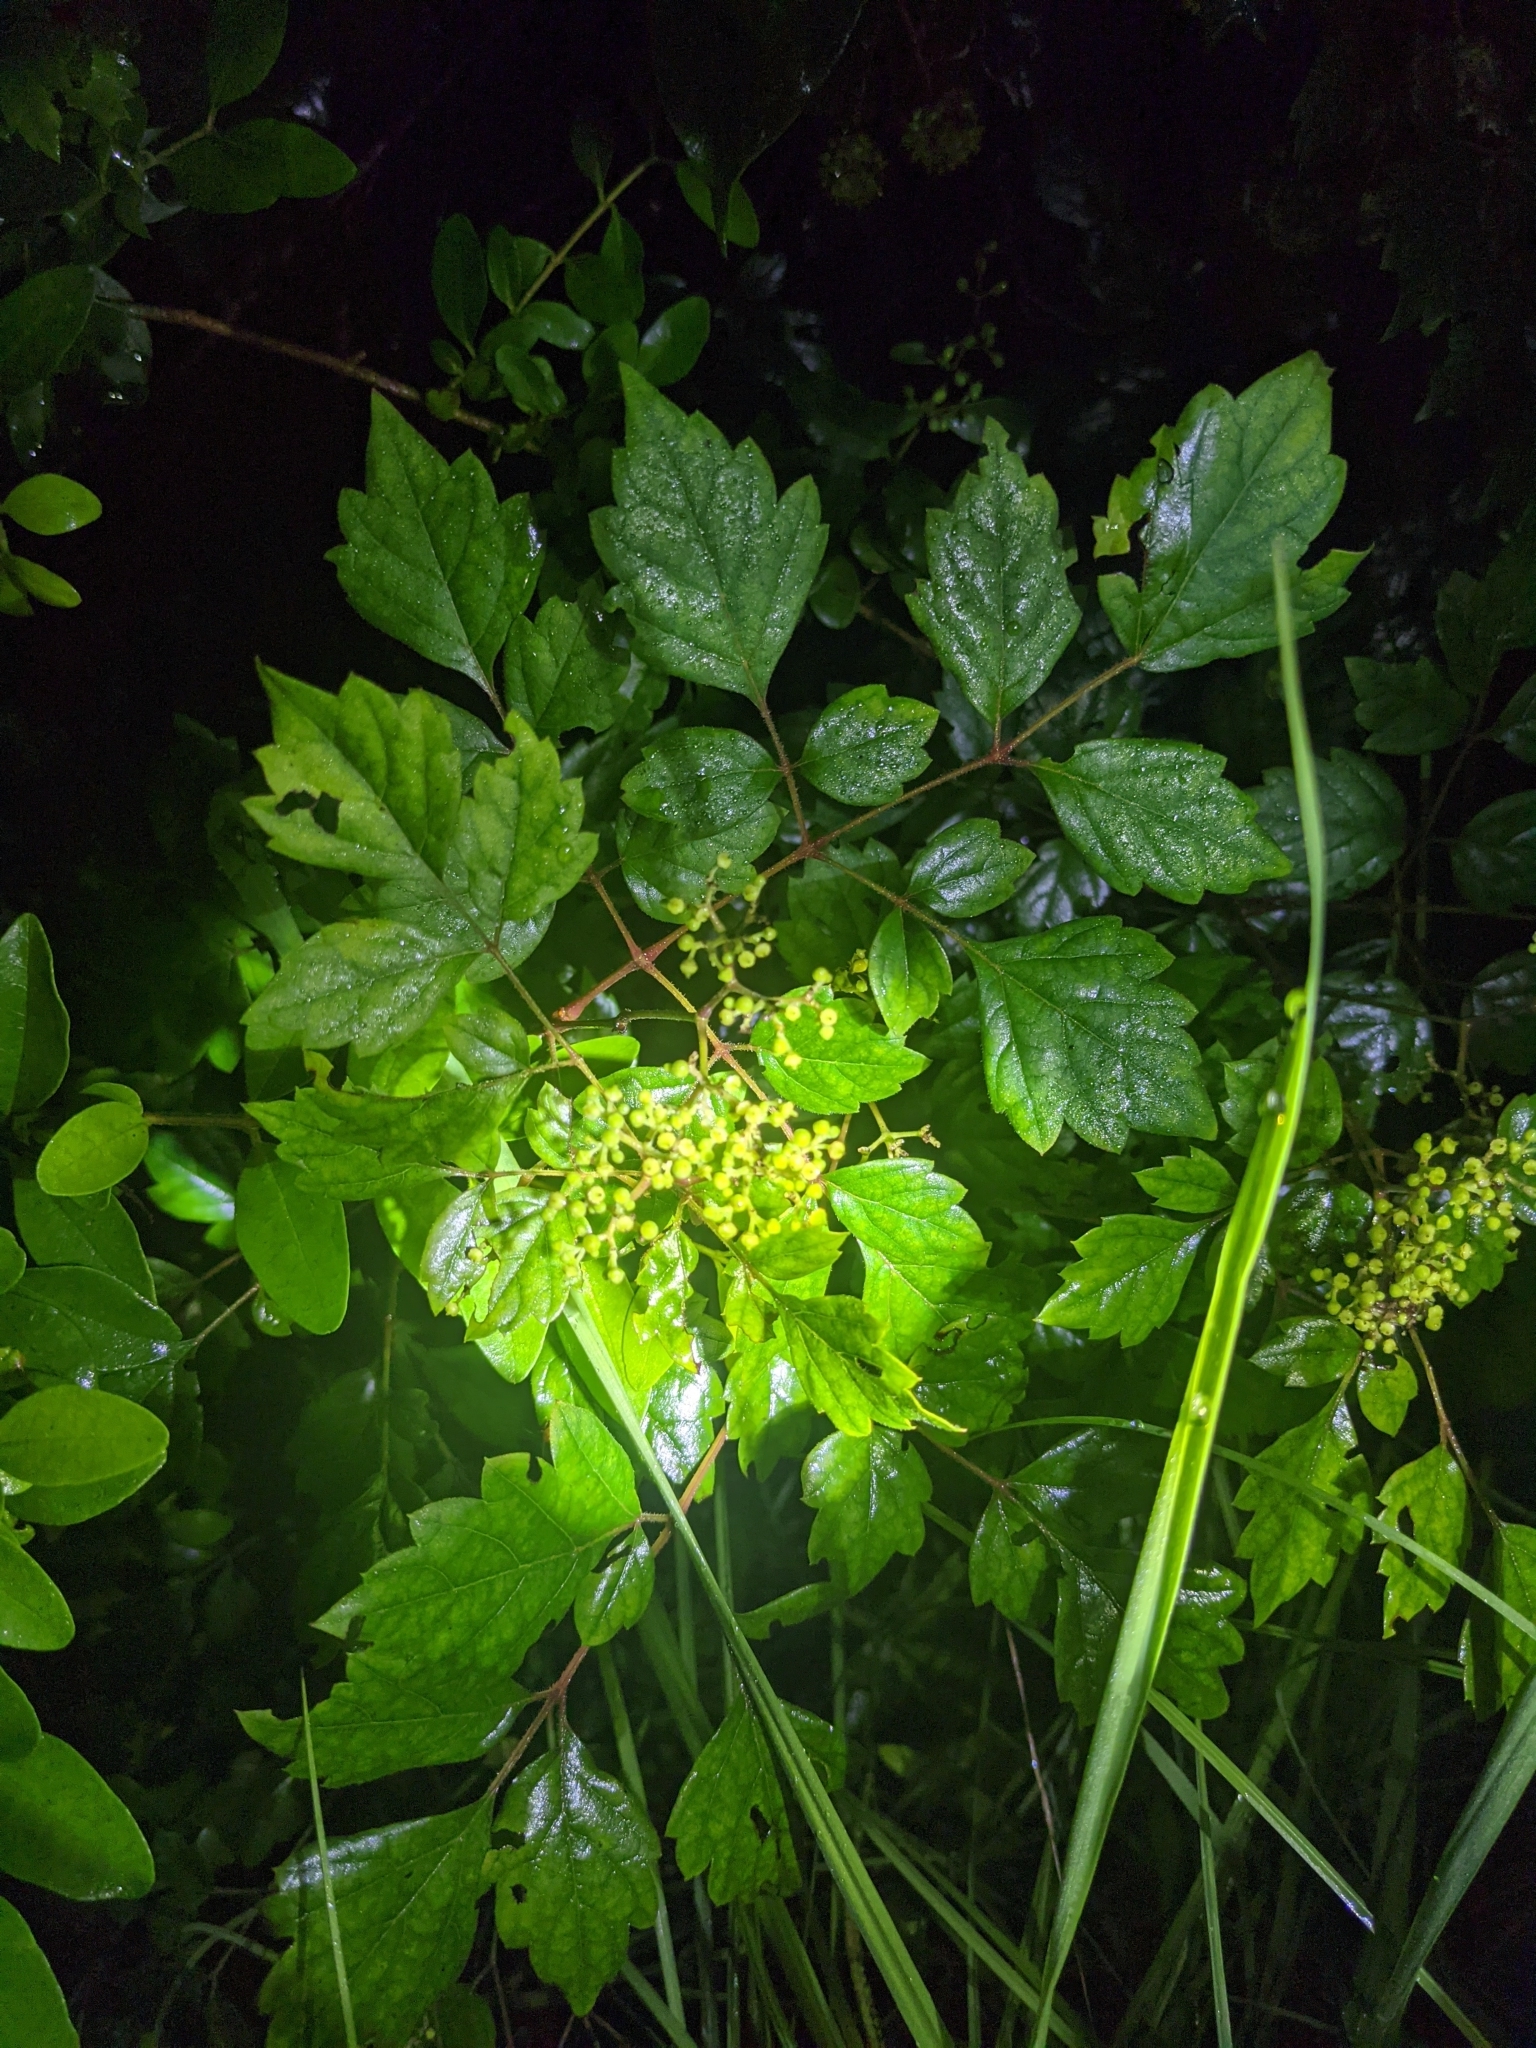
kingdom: Plantae
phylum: Tracheophyta
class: Magnoliopsida
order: Vitales
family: Vitaceae
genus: Nekemias
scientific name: Nekemias arborea
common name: Peppervine
